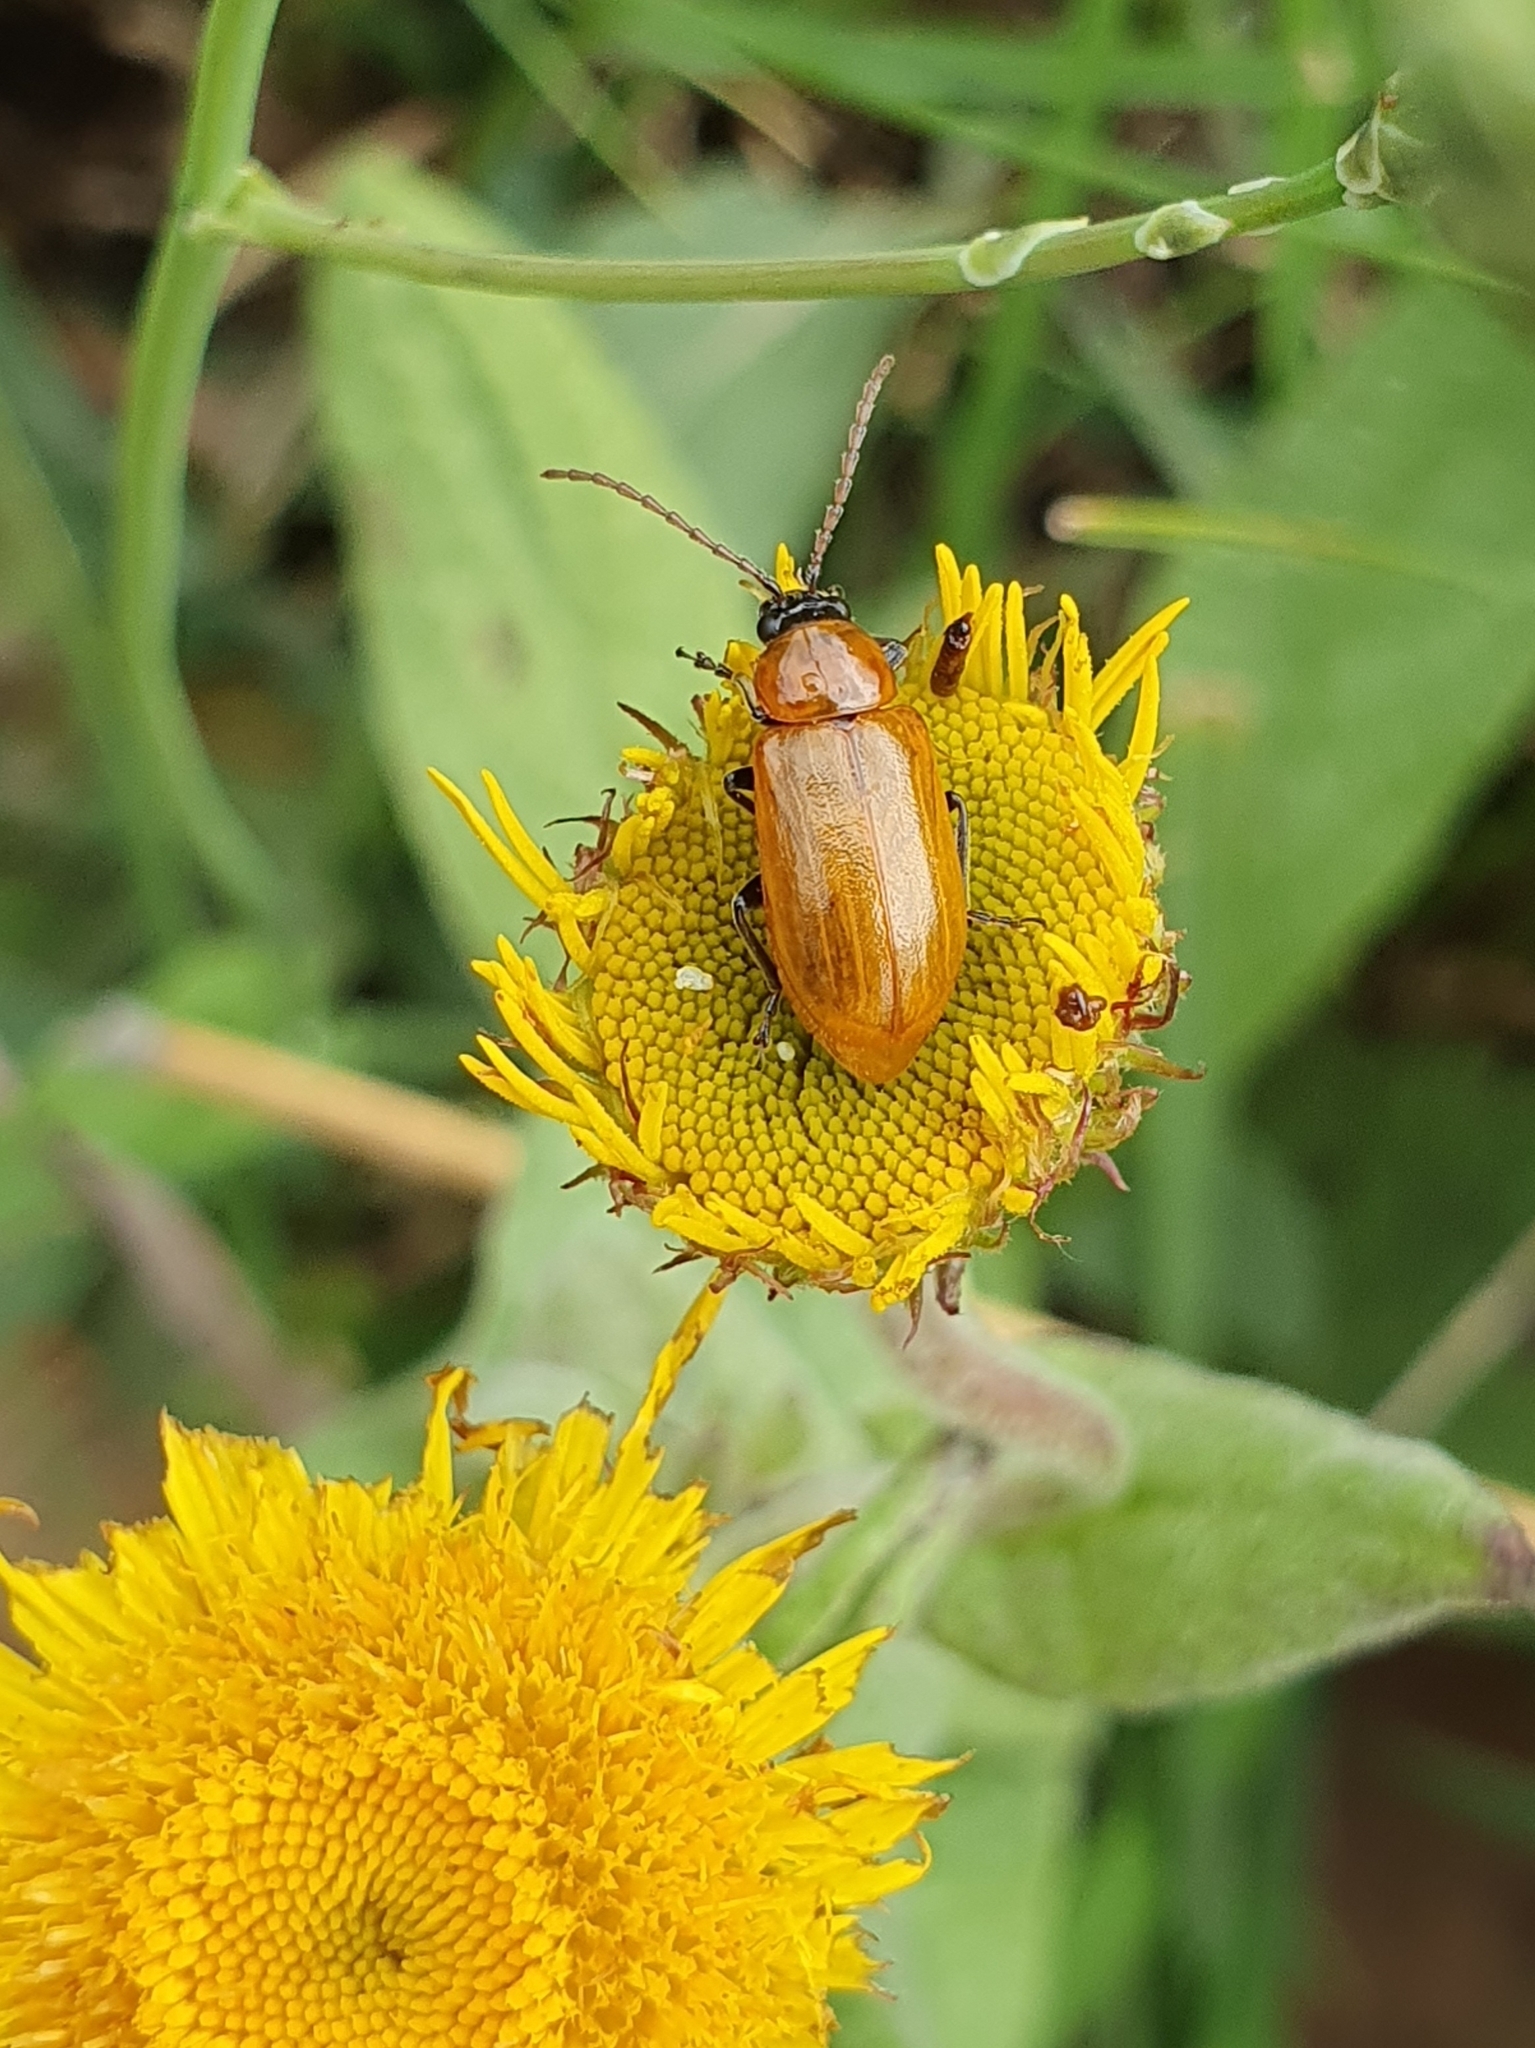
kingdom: Animalia
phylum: Arthropoda
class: Insecta
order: Coleoptera
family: Chrysomelidae
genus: Exosoma
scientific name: Exosoma lusitanicum
